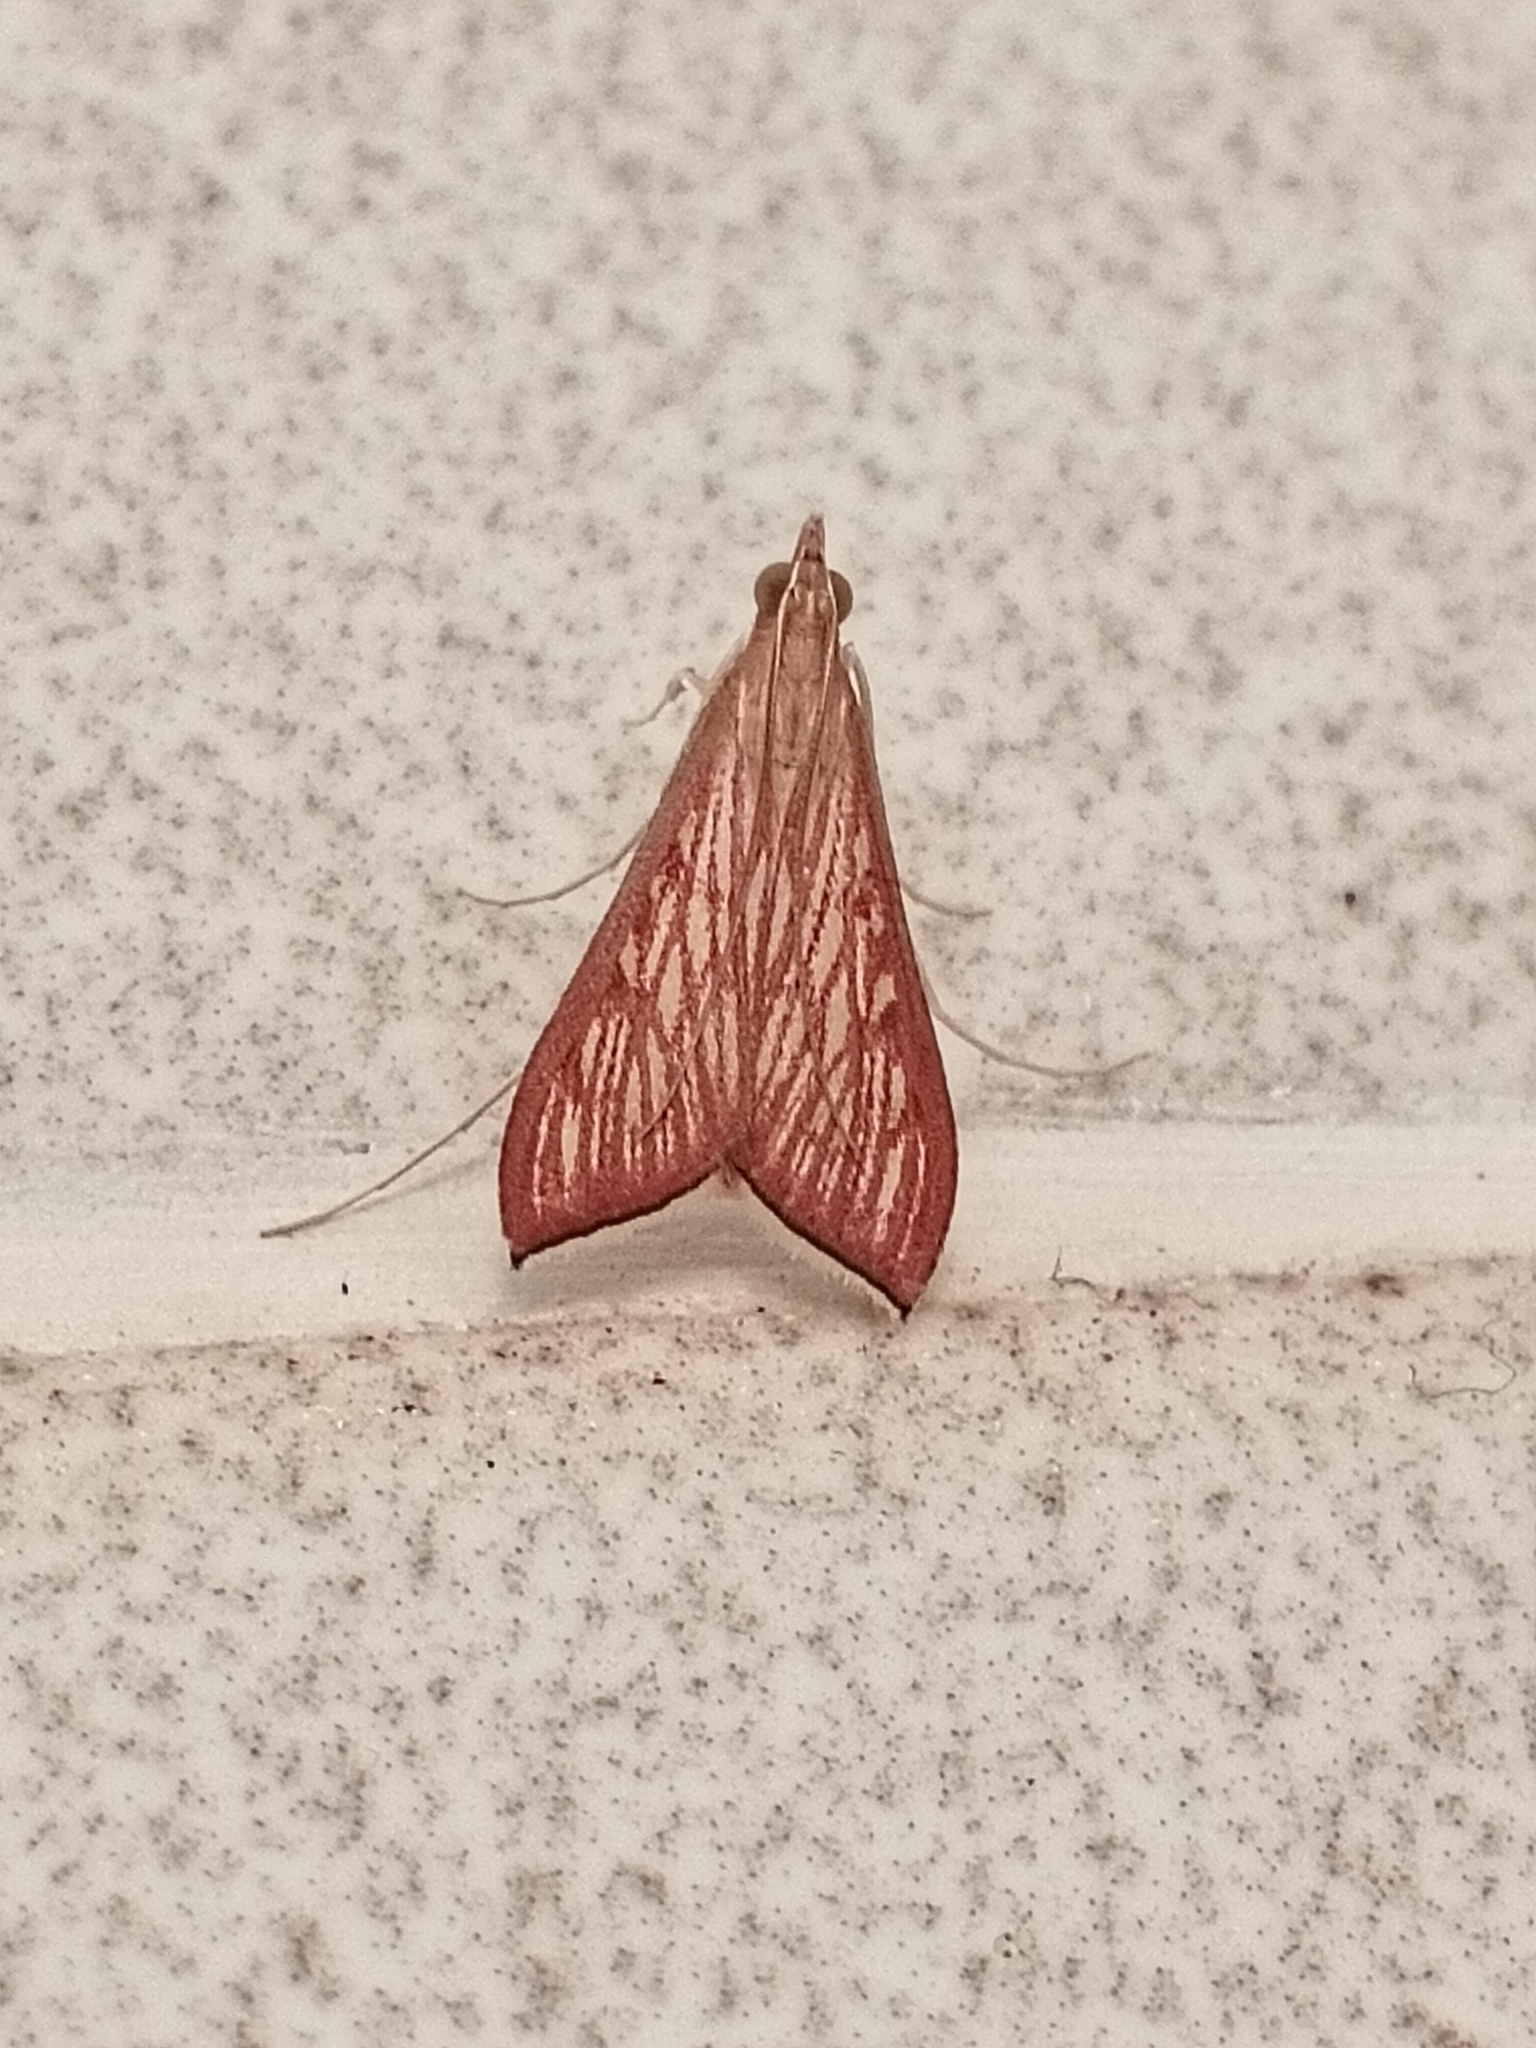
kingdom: Animalia
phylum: Arthropoda
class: Insecta
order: Lepidoptera
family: Crambidae
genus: Antigastra
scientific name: Antigastra catalaunalis
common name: Spanish dot
